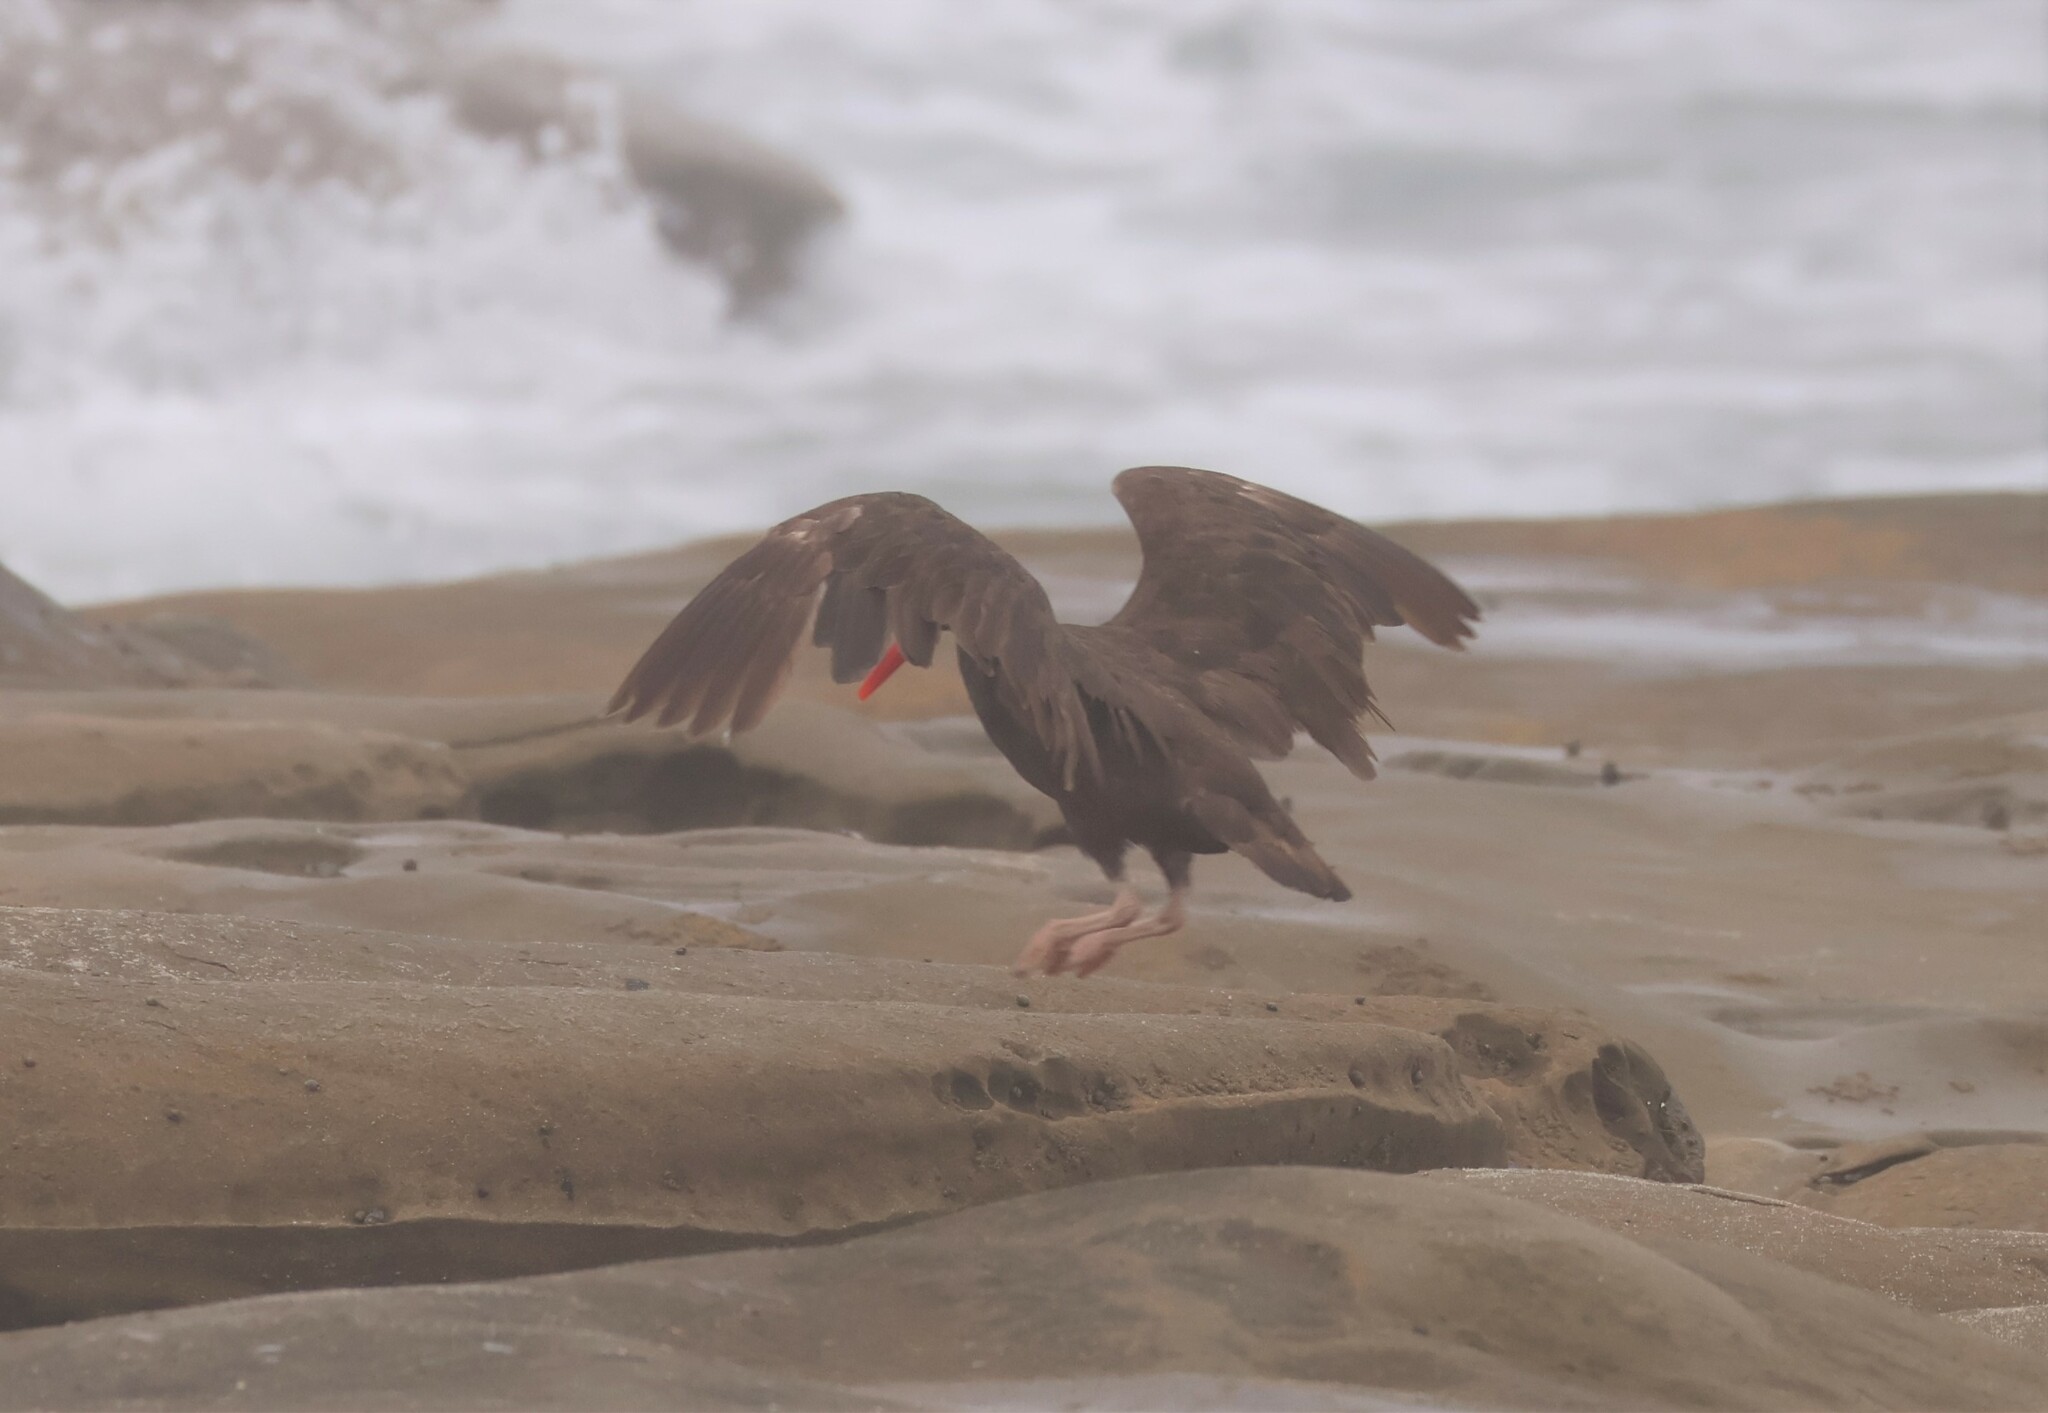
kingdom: Animalia
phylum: Chordata
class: Aves
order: Charadriiformes
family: Haematopodidae
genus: Haematopus
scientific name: Haematopus bachmani
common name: Black oystercatcher
